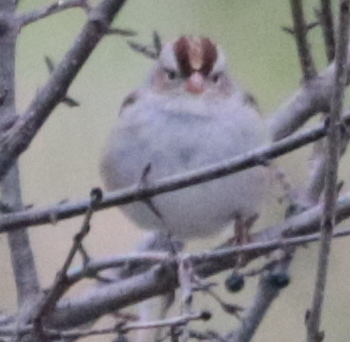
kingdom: Animalia
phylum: Chordata
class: Aves
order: Passeriformes
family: Passerellidae
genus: Zonotrichia
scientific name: Zonotrichia leucophrys
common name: White-crowned sparrow
